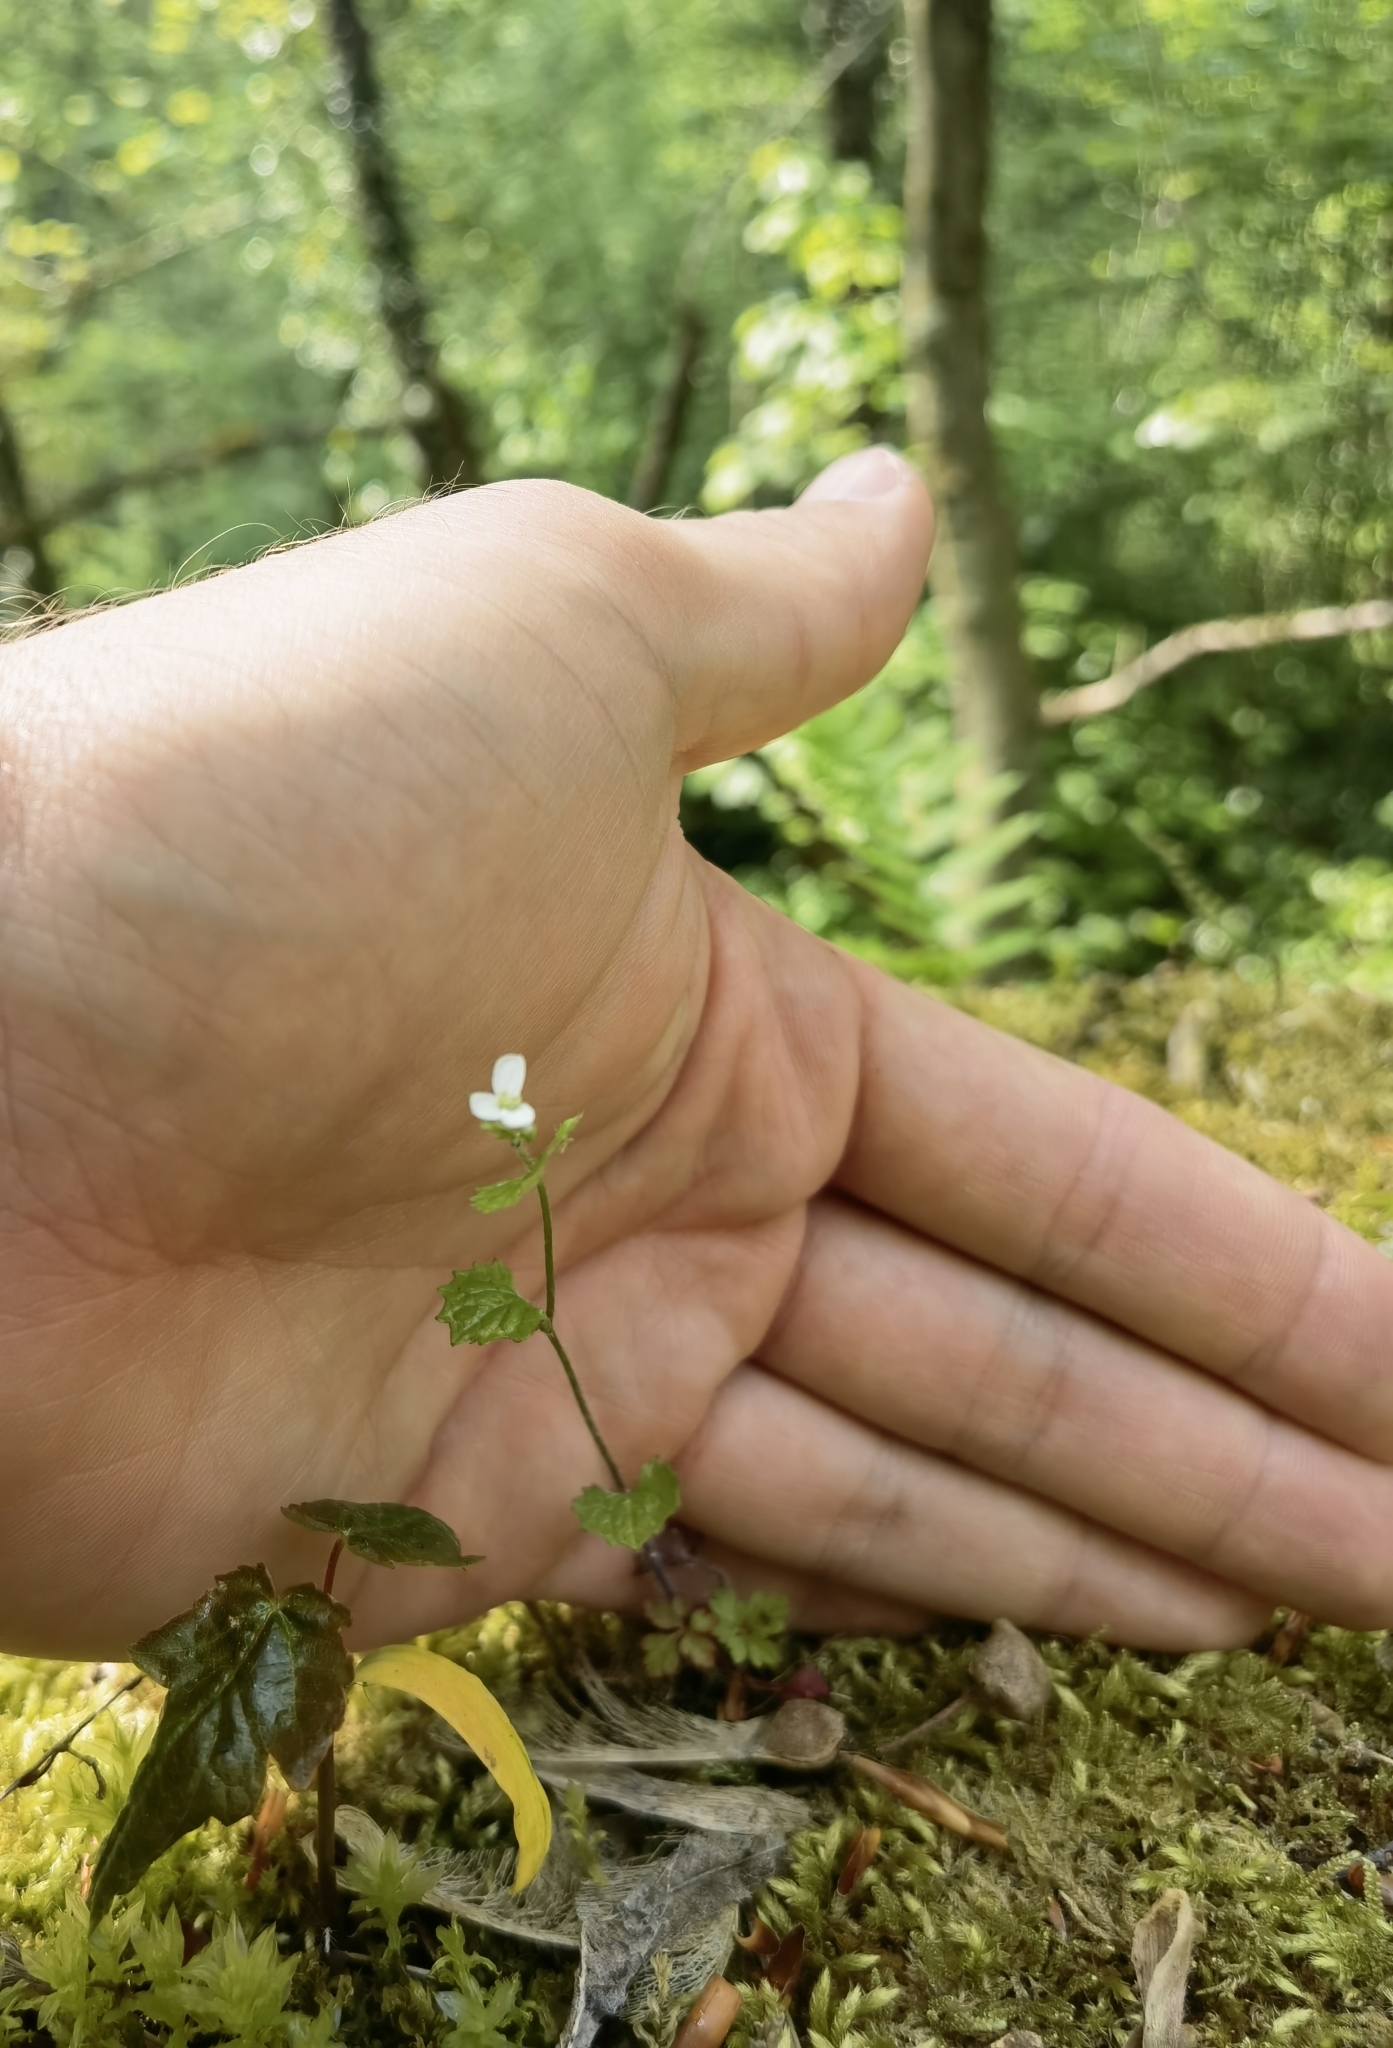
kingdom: Plantae
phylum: Tracheophyta
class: Magnoliopsida
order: Brassicales
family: Brassicaceae
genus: Alliaria
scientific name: Alliaria petiolata
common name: Garlic mustard
